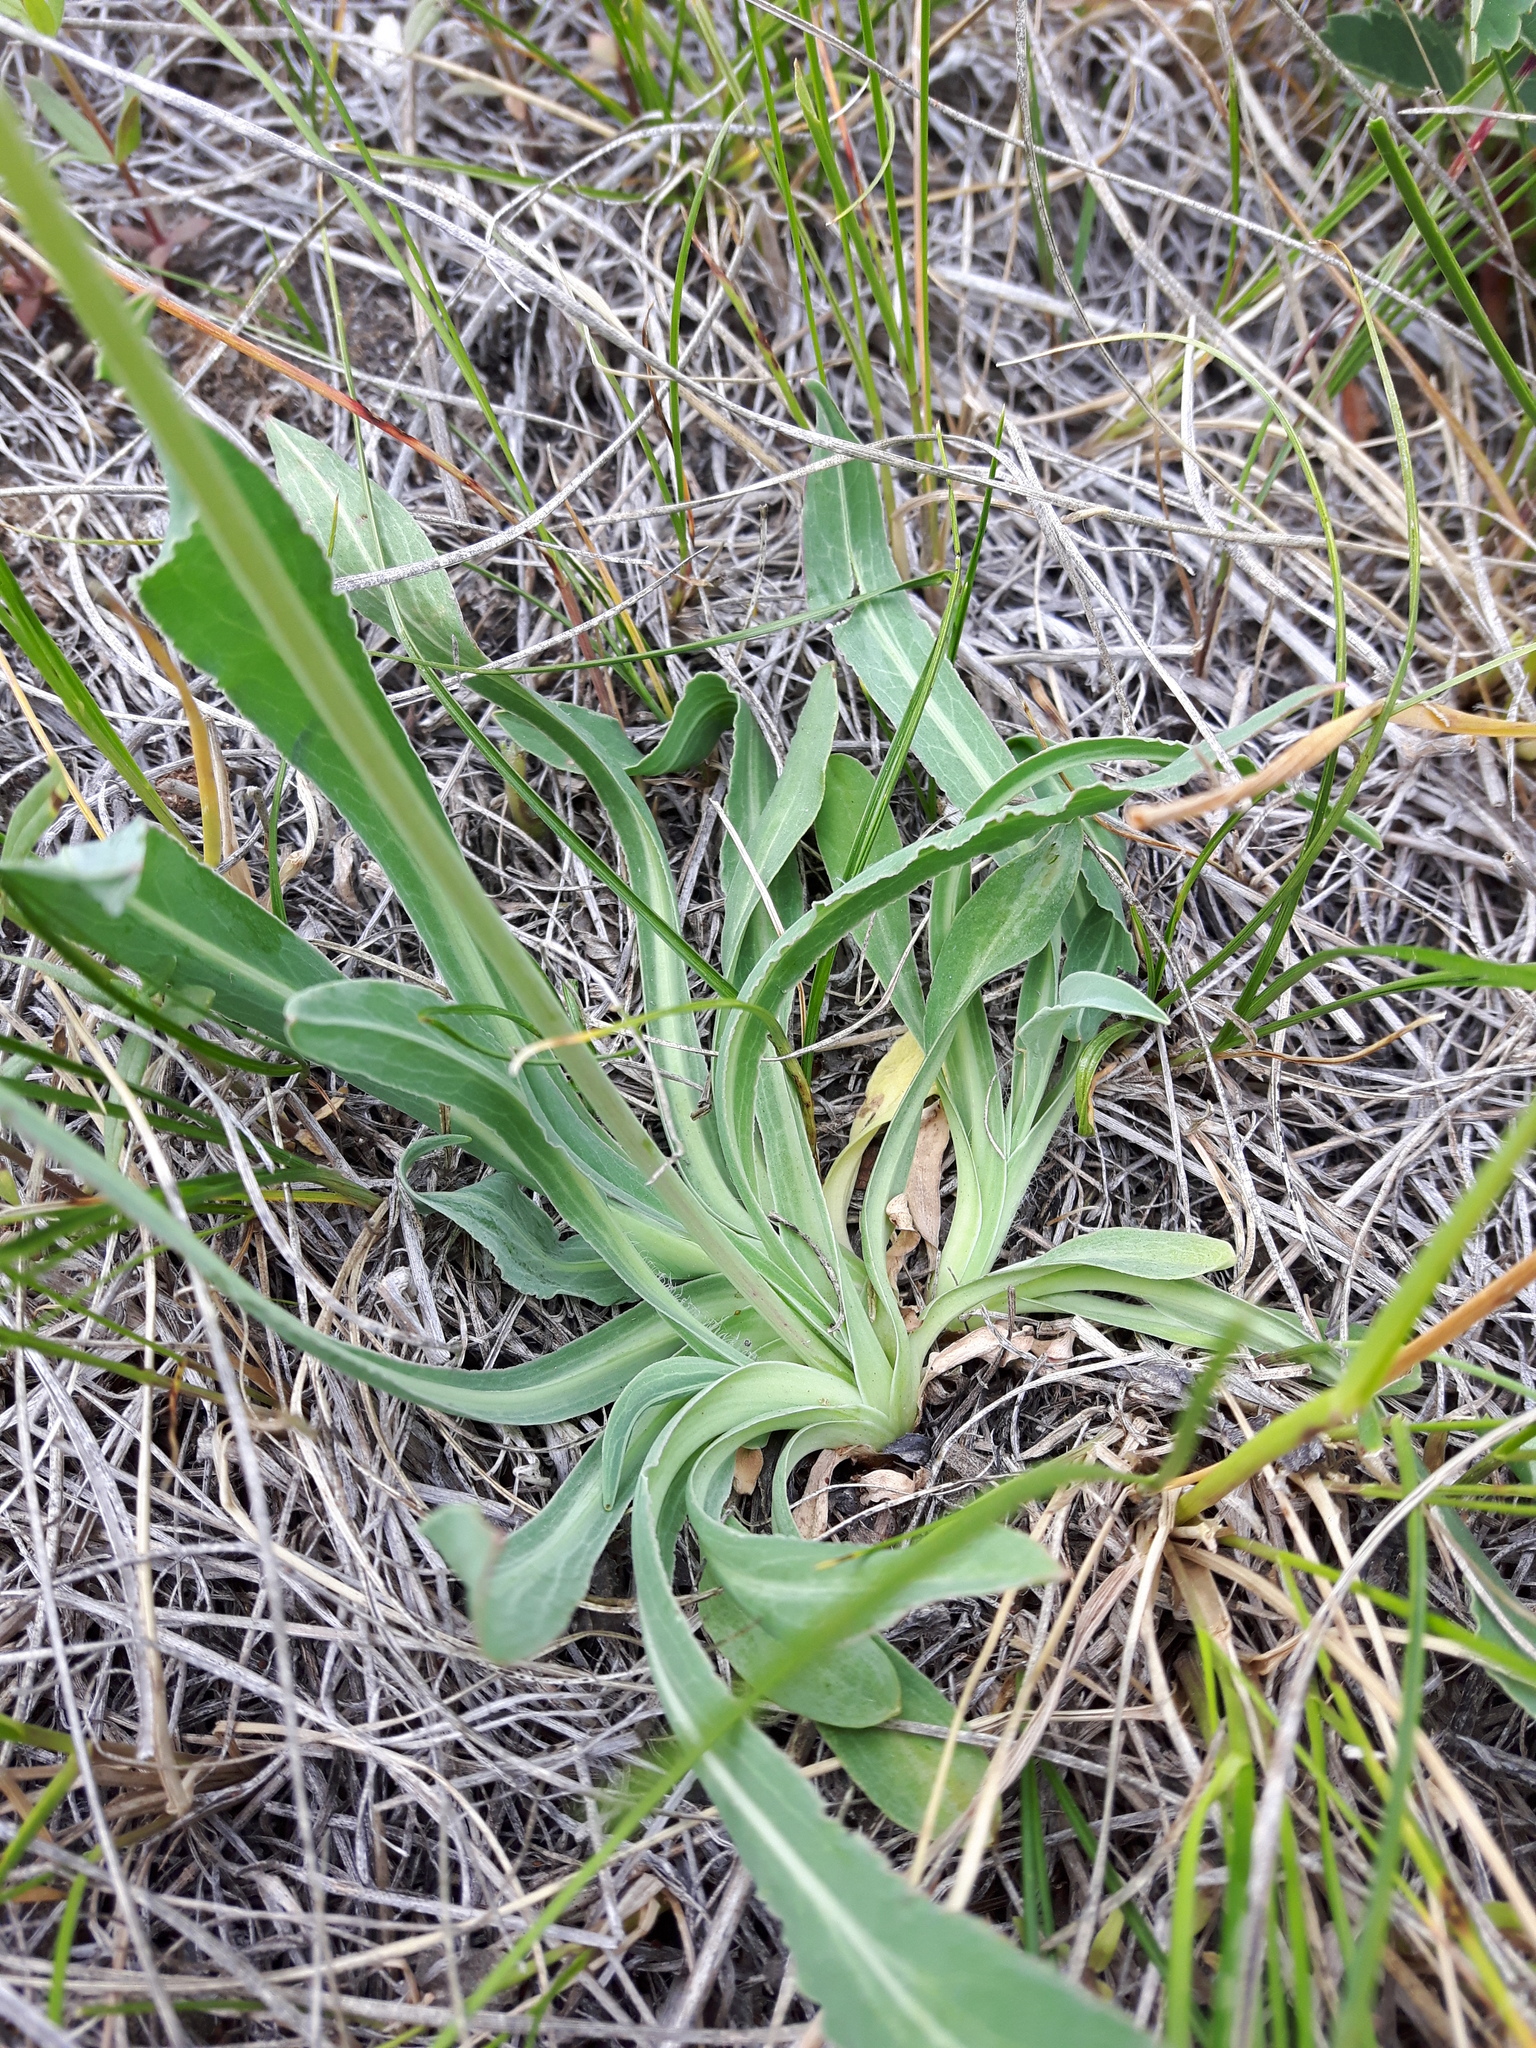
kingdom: Plantae
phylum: Tracheophyta
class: Magnoliopsida
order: Asterales
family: Asteraceae
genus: Agoseris
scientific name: Agoseris glauca
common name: Prairie agoseris
